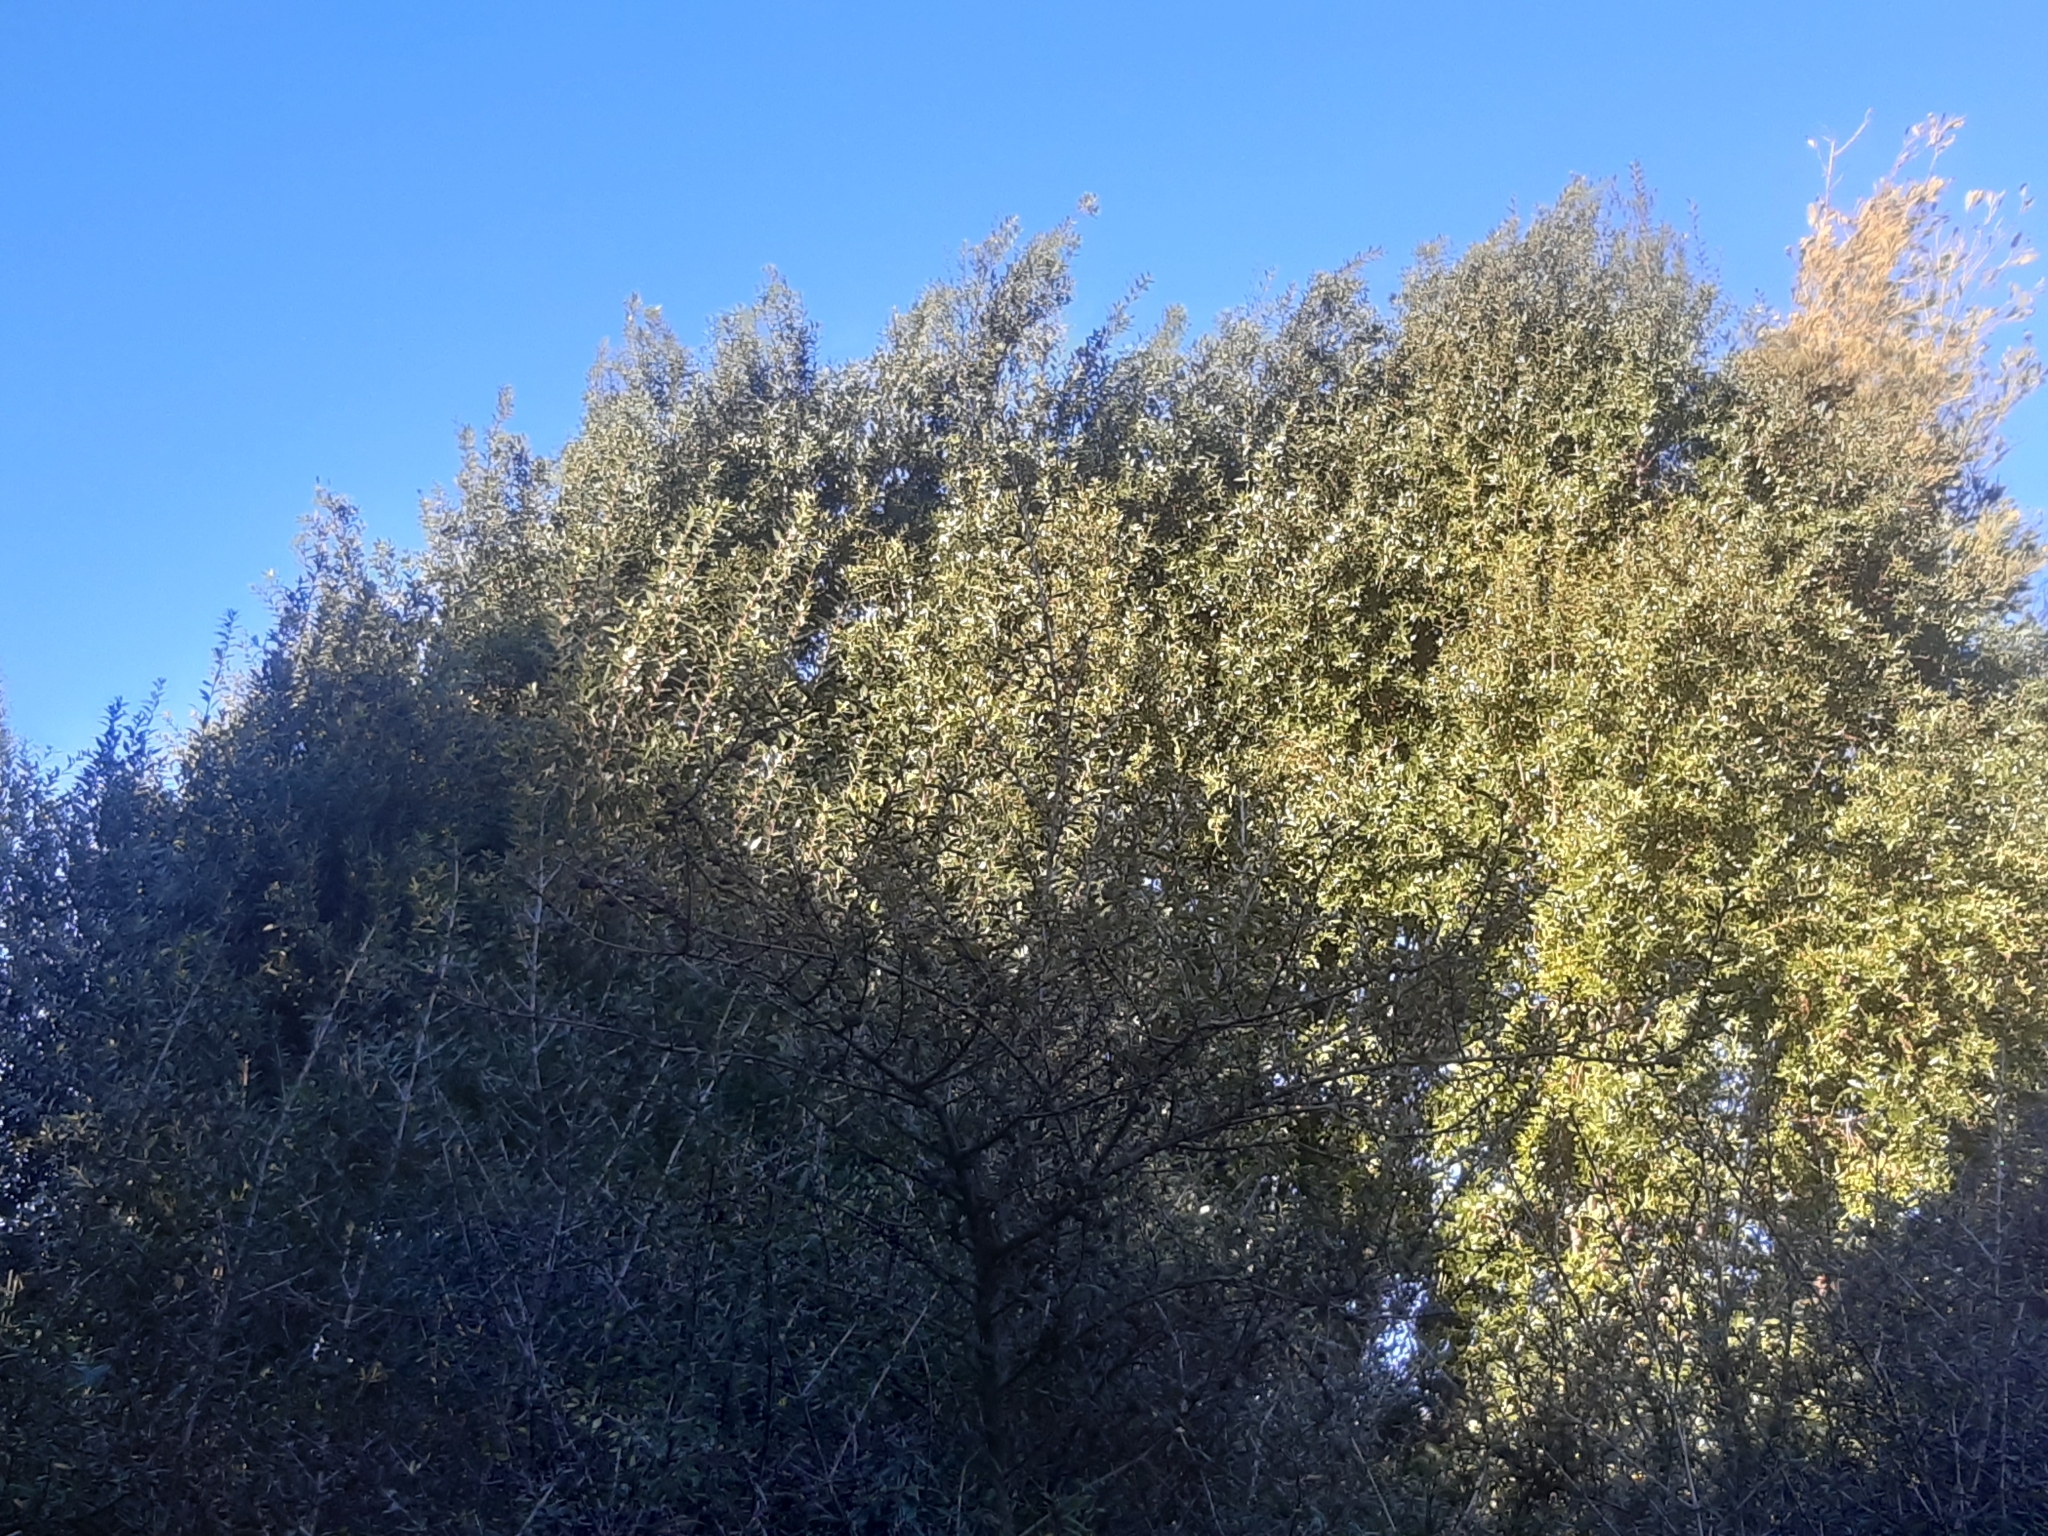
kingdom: Plantae
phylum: Tracheophyta
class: Magnoliopsida
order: Celastrales
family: Celastraceae
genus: Maytenus
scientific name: Maytenus boaria
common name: Mayten
